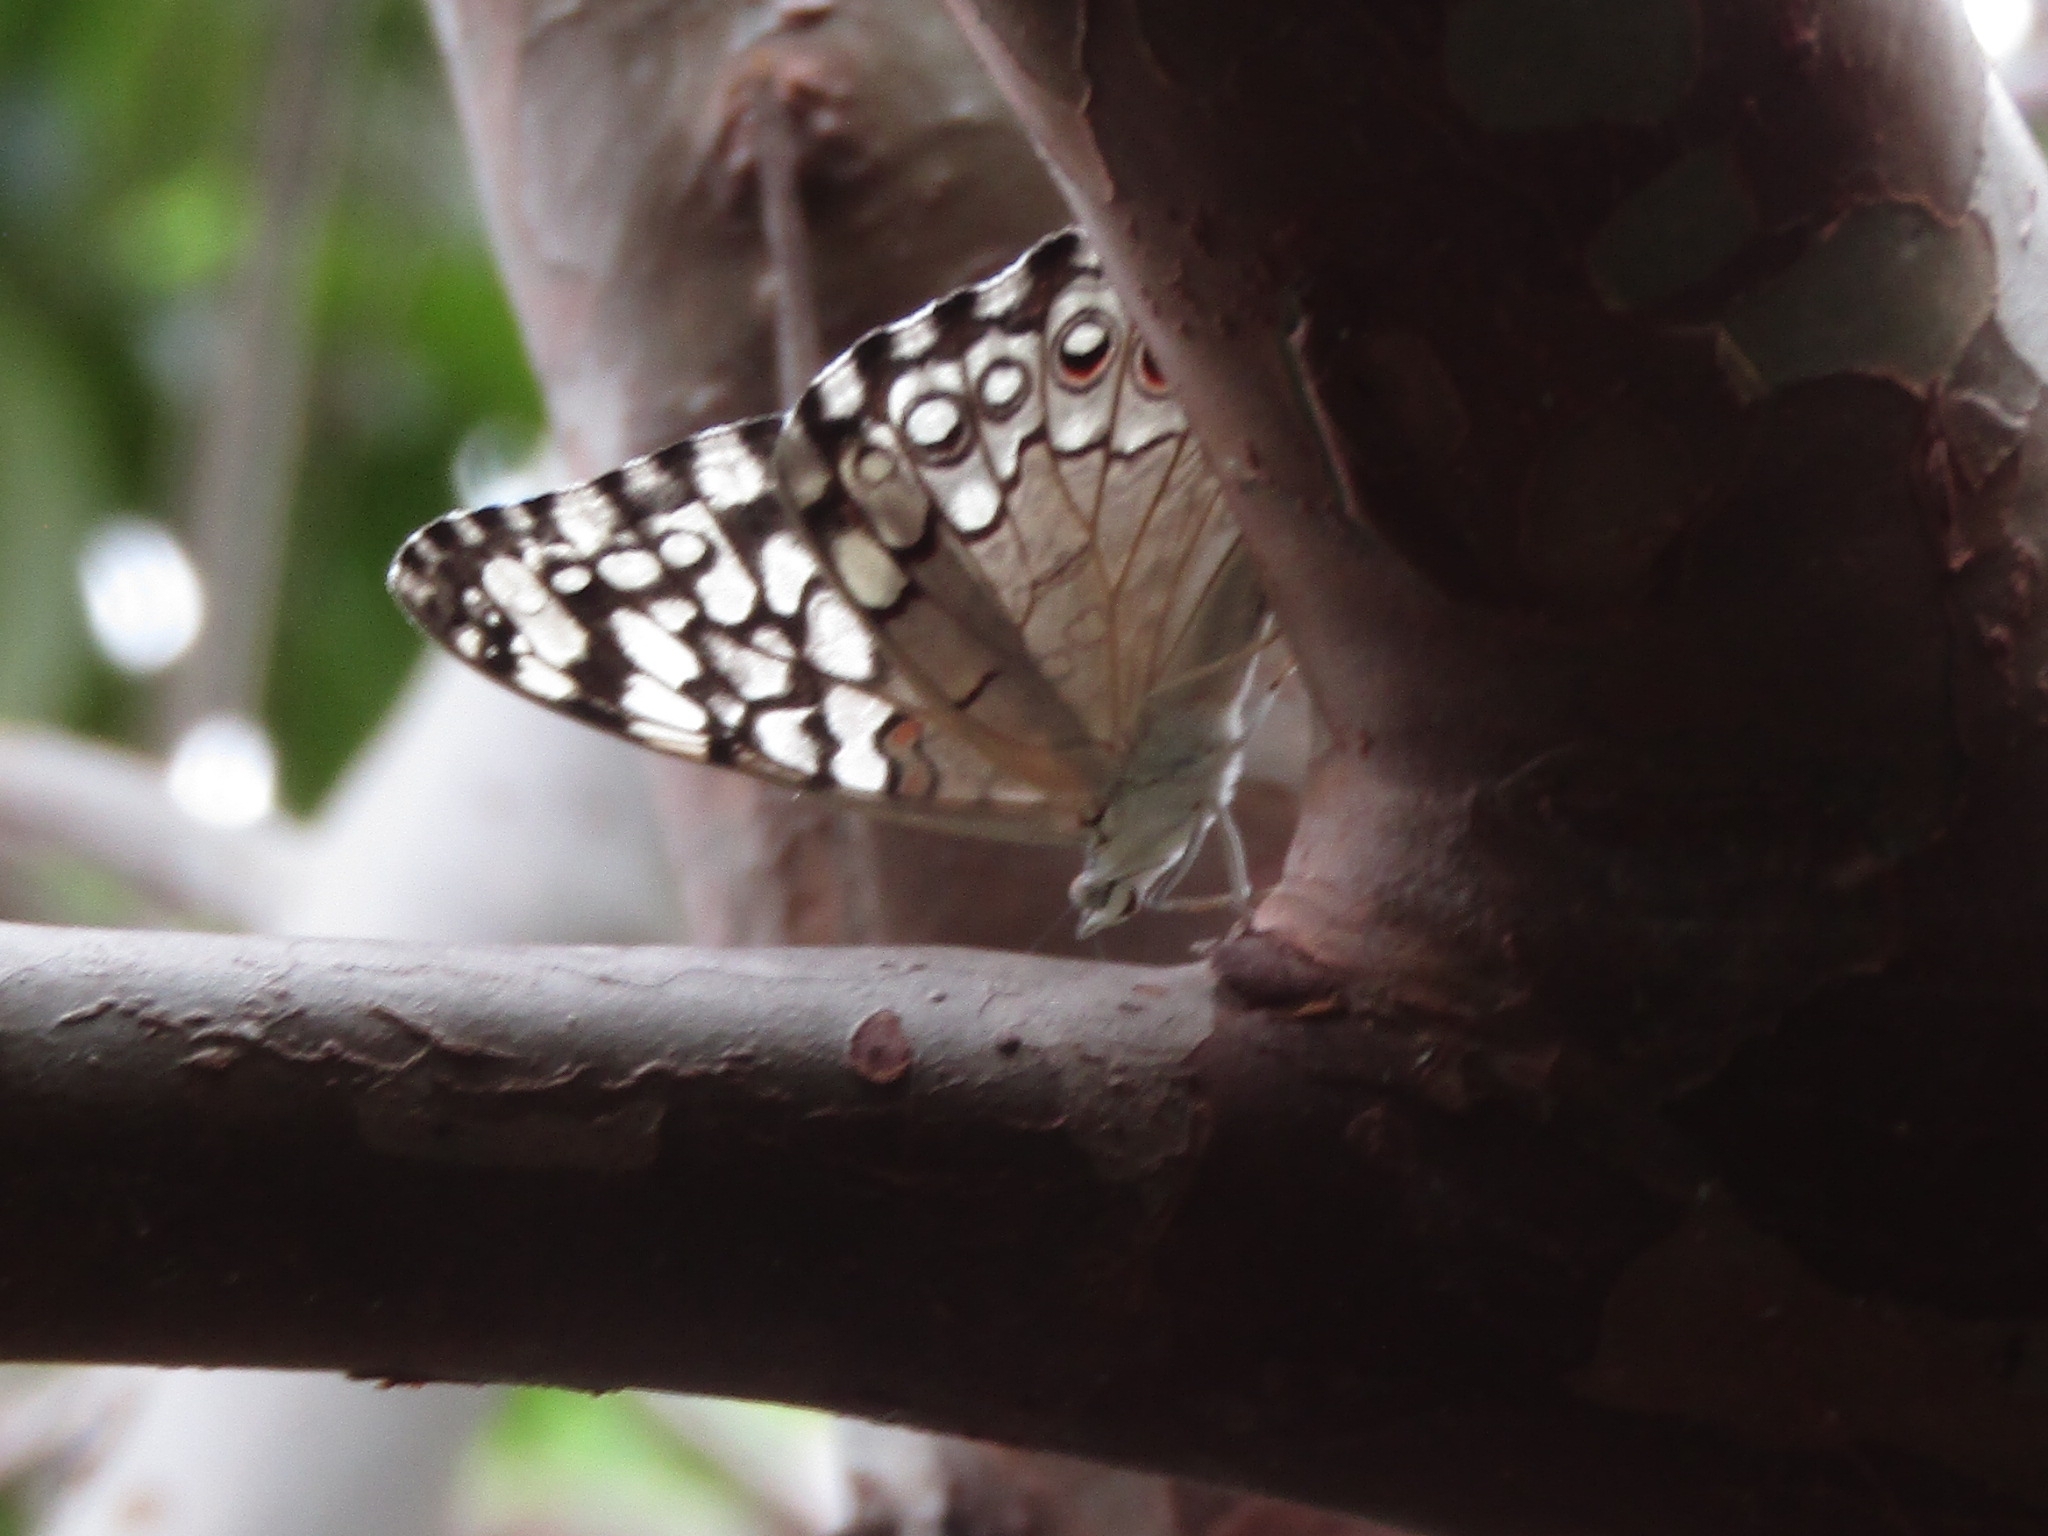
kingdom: Animalia
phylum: Arthropoda
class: Insecta
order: Lepidoptera
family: Nymphalidae
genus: Hamadryas
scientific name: Hamadryas februa
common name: Gray cracker
